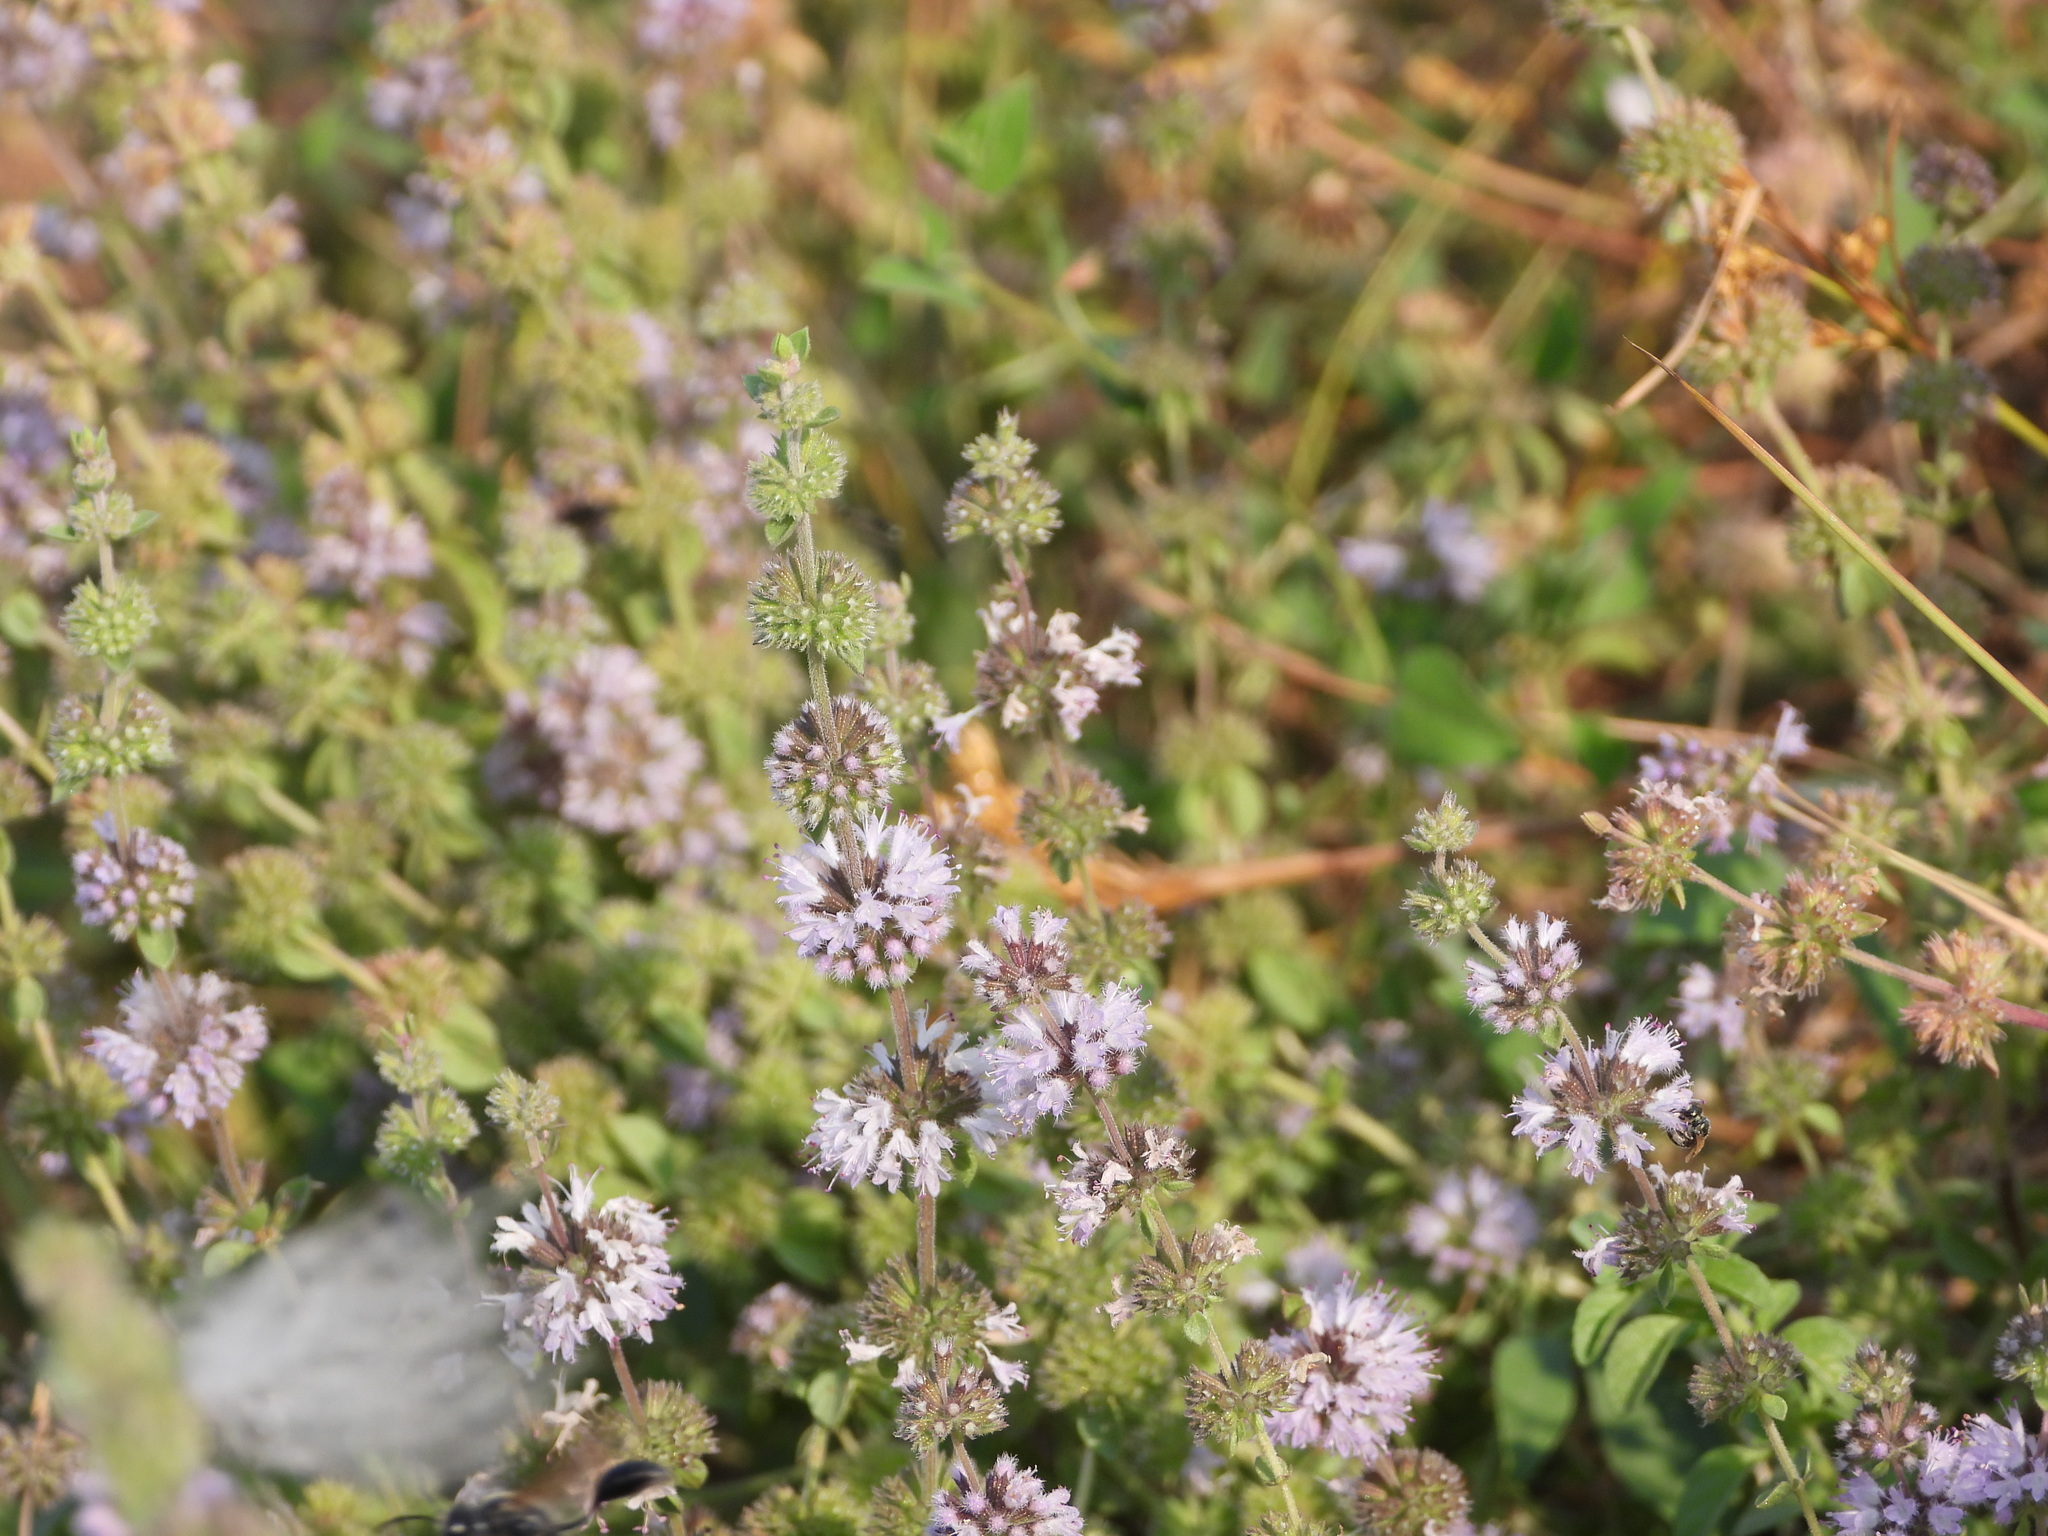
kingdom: Plantae
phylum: Tracheophyta
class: Magnoliopsida
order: Lamiales
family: Lamiaceae
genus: Mentha
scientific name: Mentha pulegium
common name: Pennyroyal
